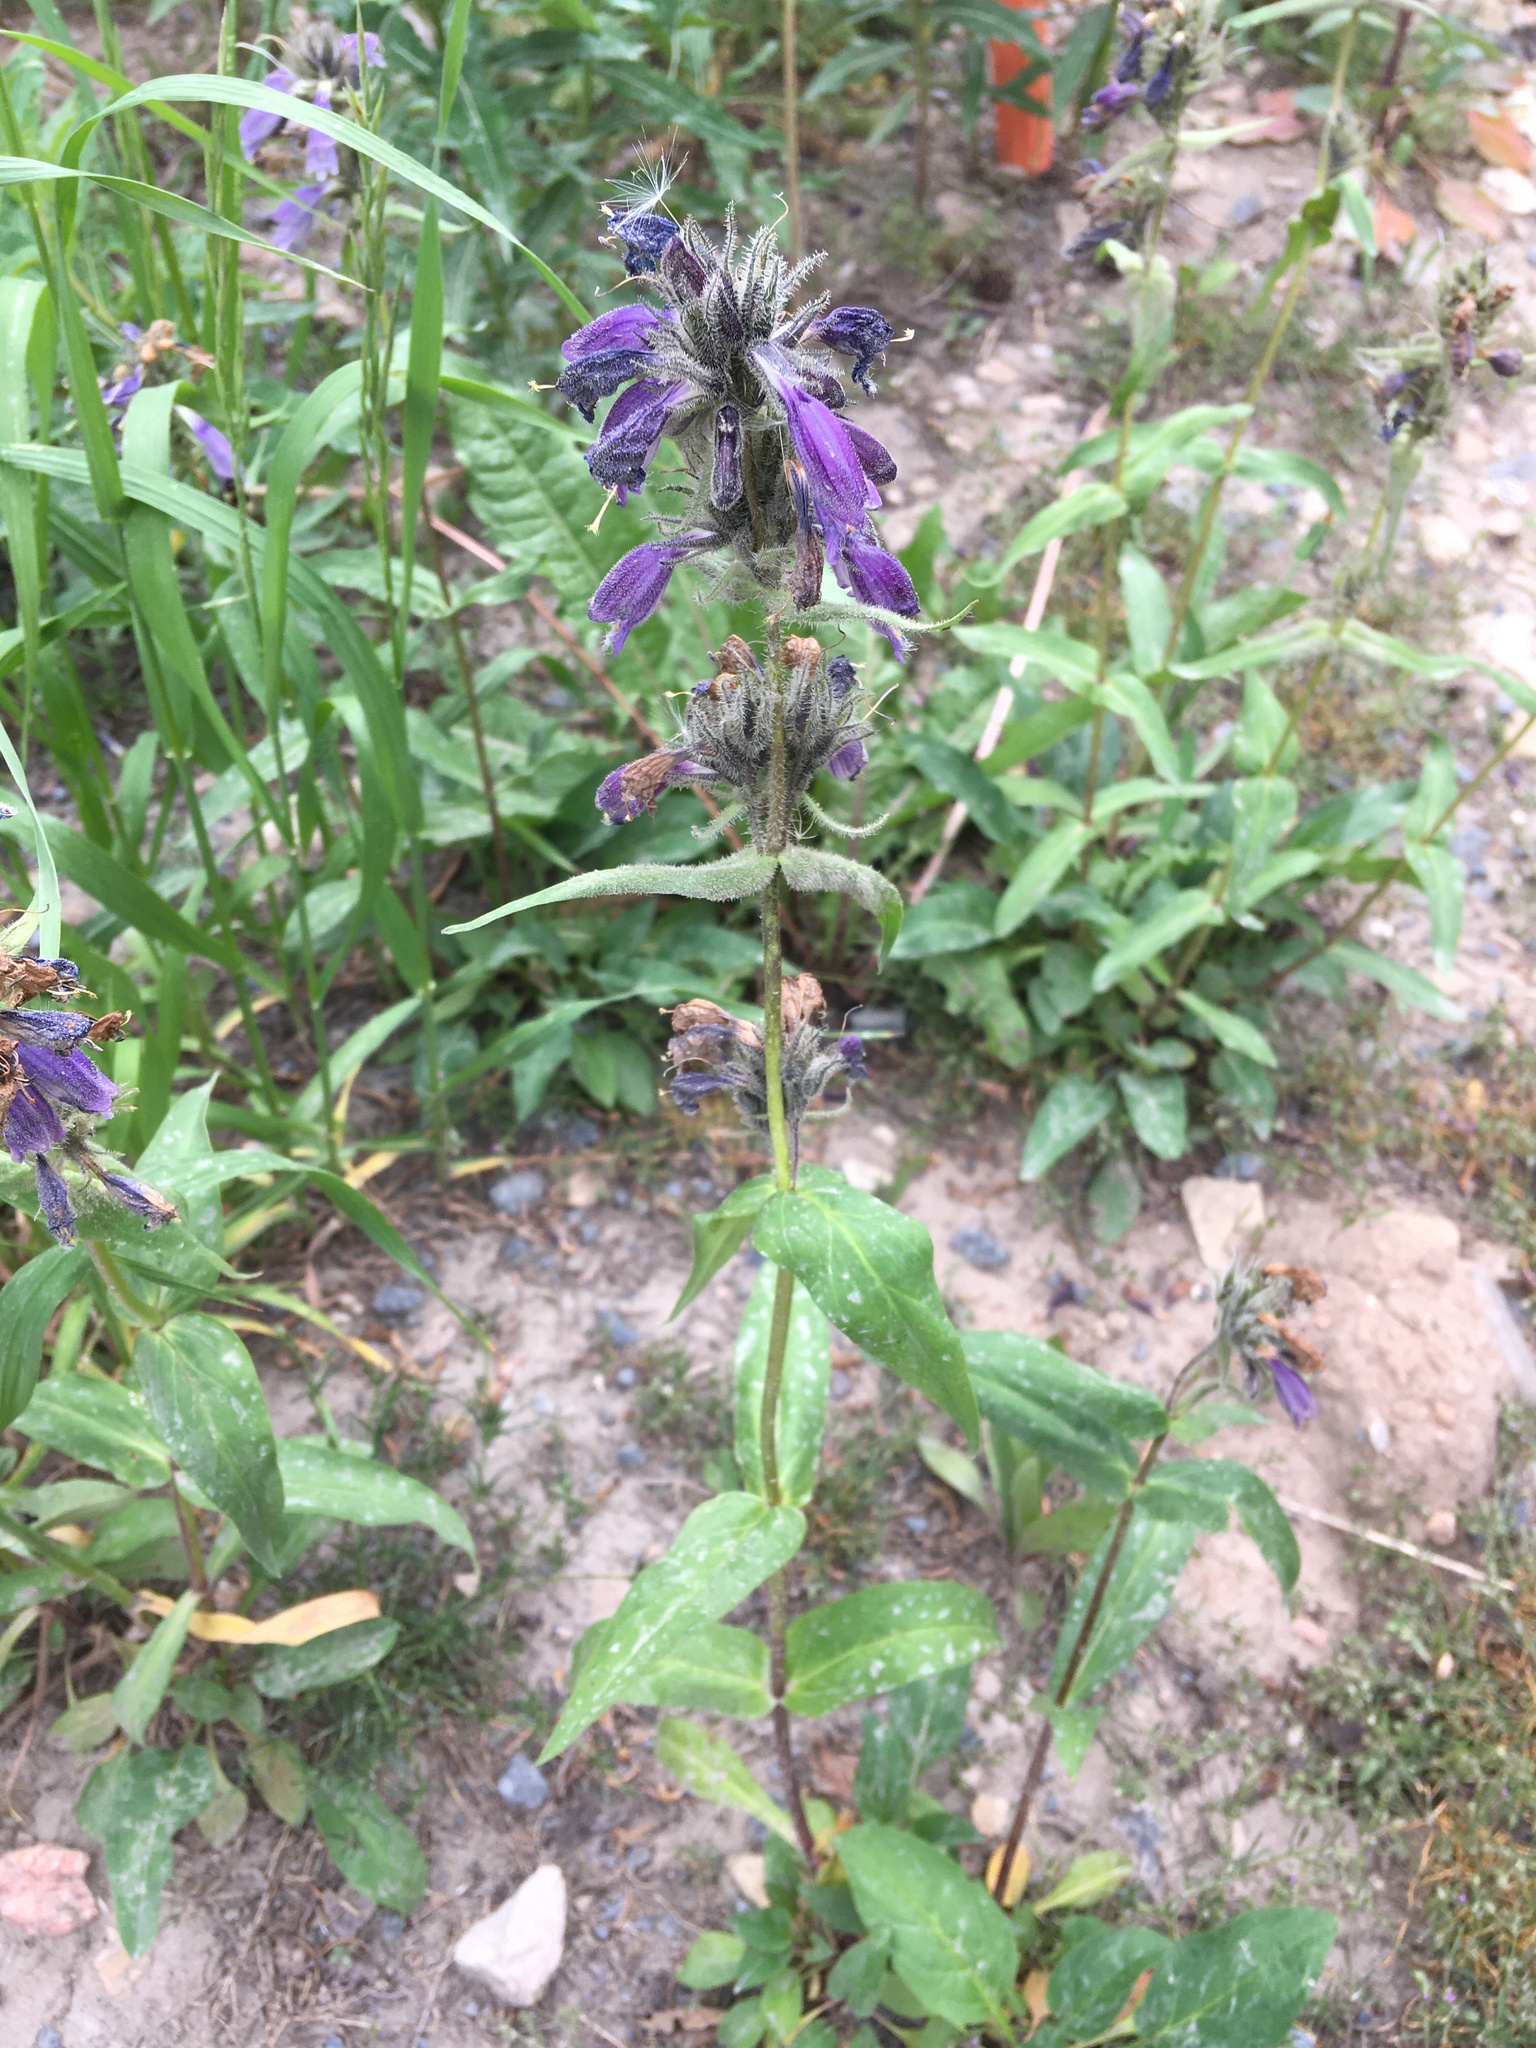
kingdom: Plantae
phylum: Tracheophyta
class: Magnoliopsida
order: Lamiales
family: Plantaginaceae
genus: Penstemon
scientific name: Penstemon whippleanus
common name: Whipple's penstemon
